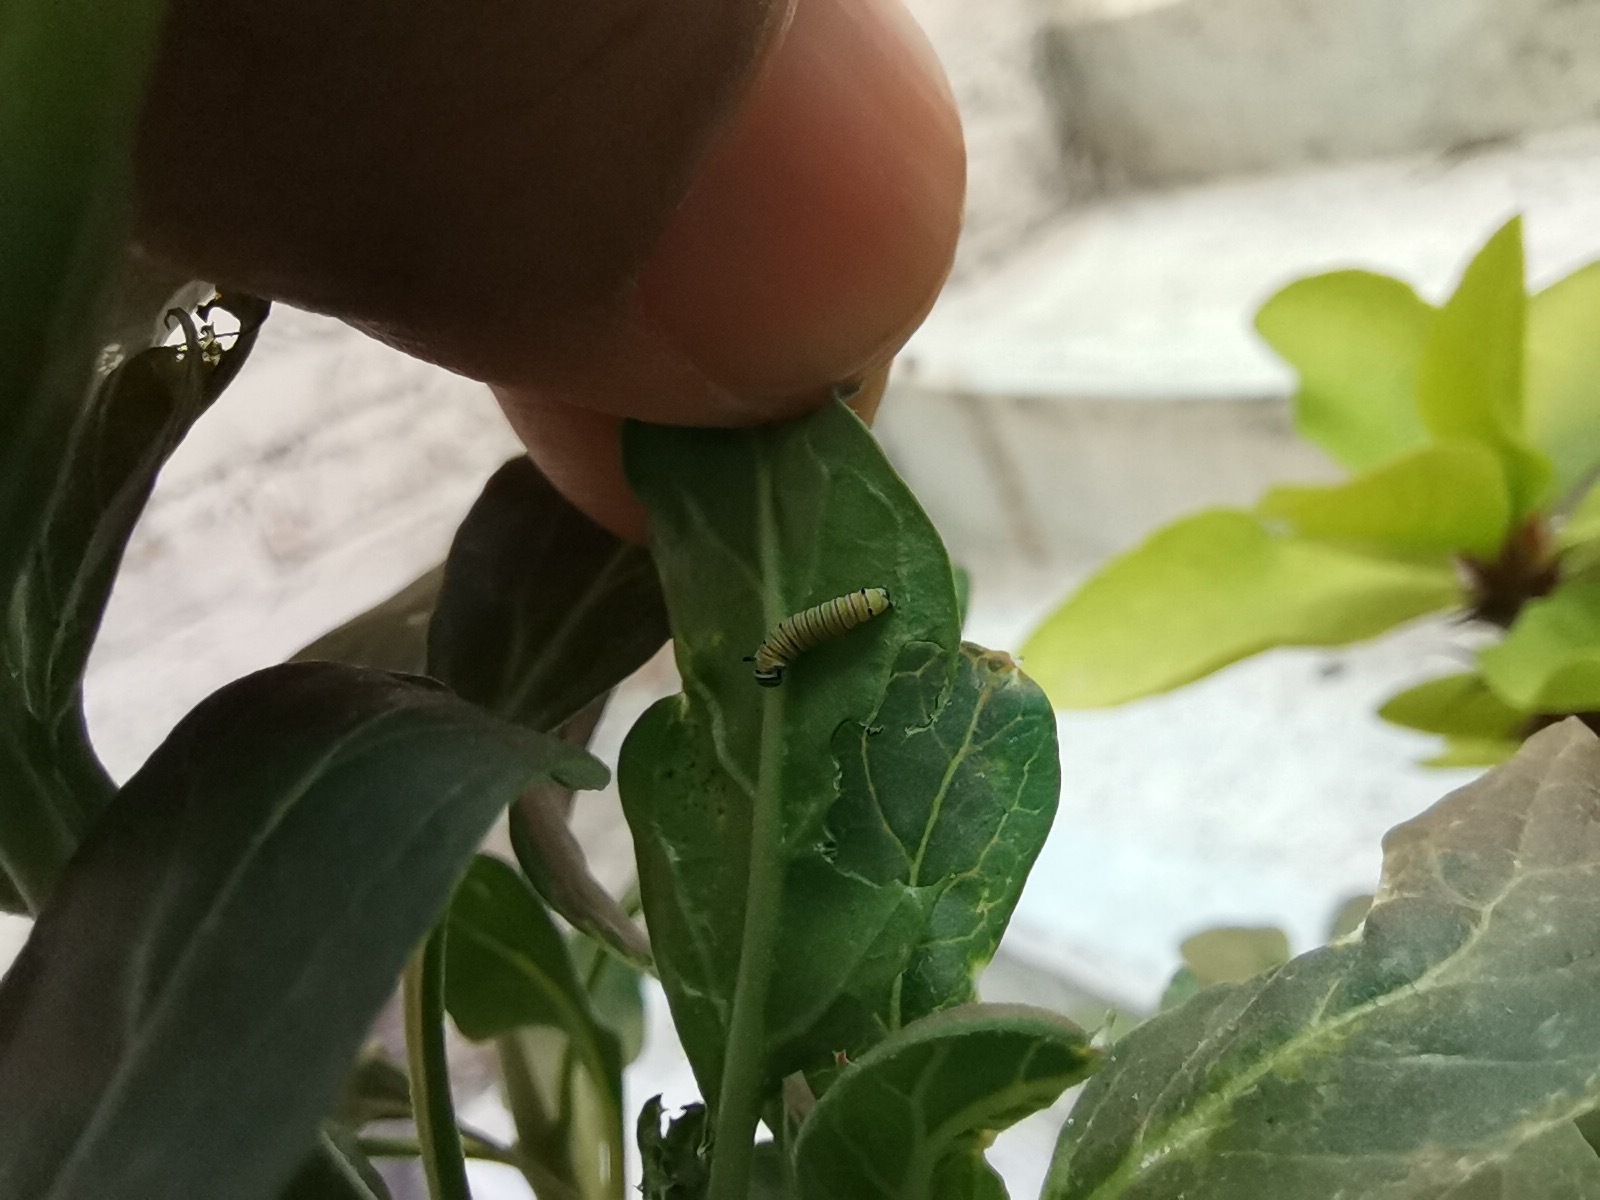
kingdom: Animalia
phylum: Arthropoda
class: Insecta
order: Lepidoptera
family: Nymphalidae
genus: Danaus
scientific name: Danaus plexippus
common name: Monarch
